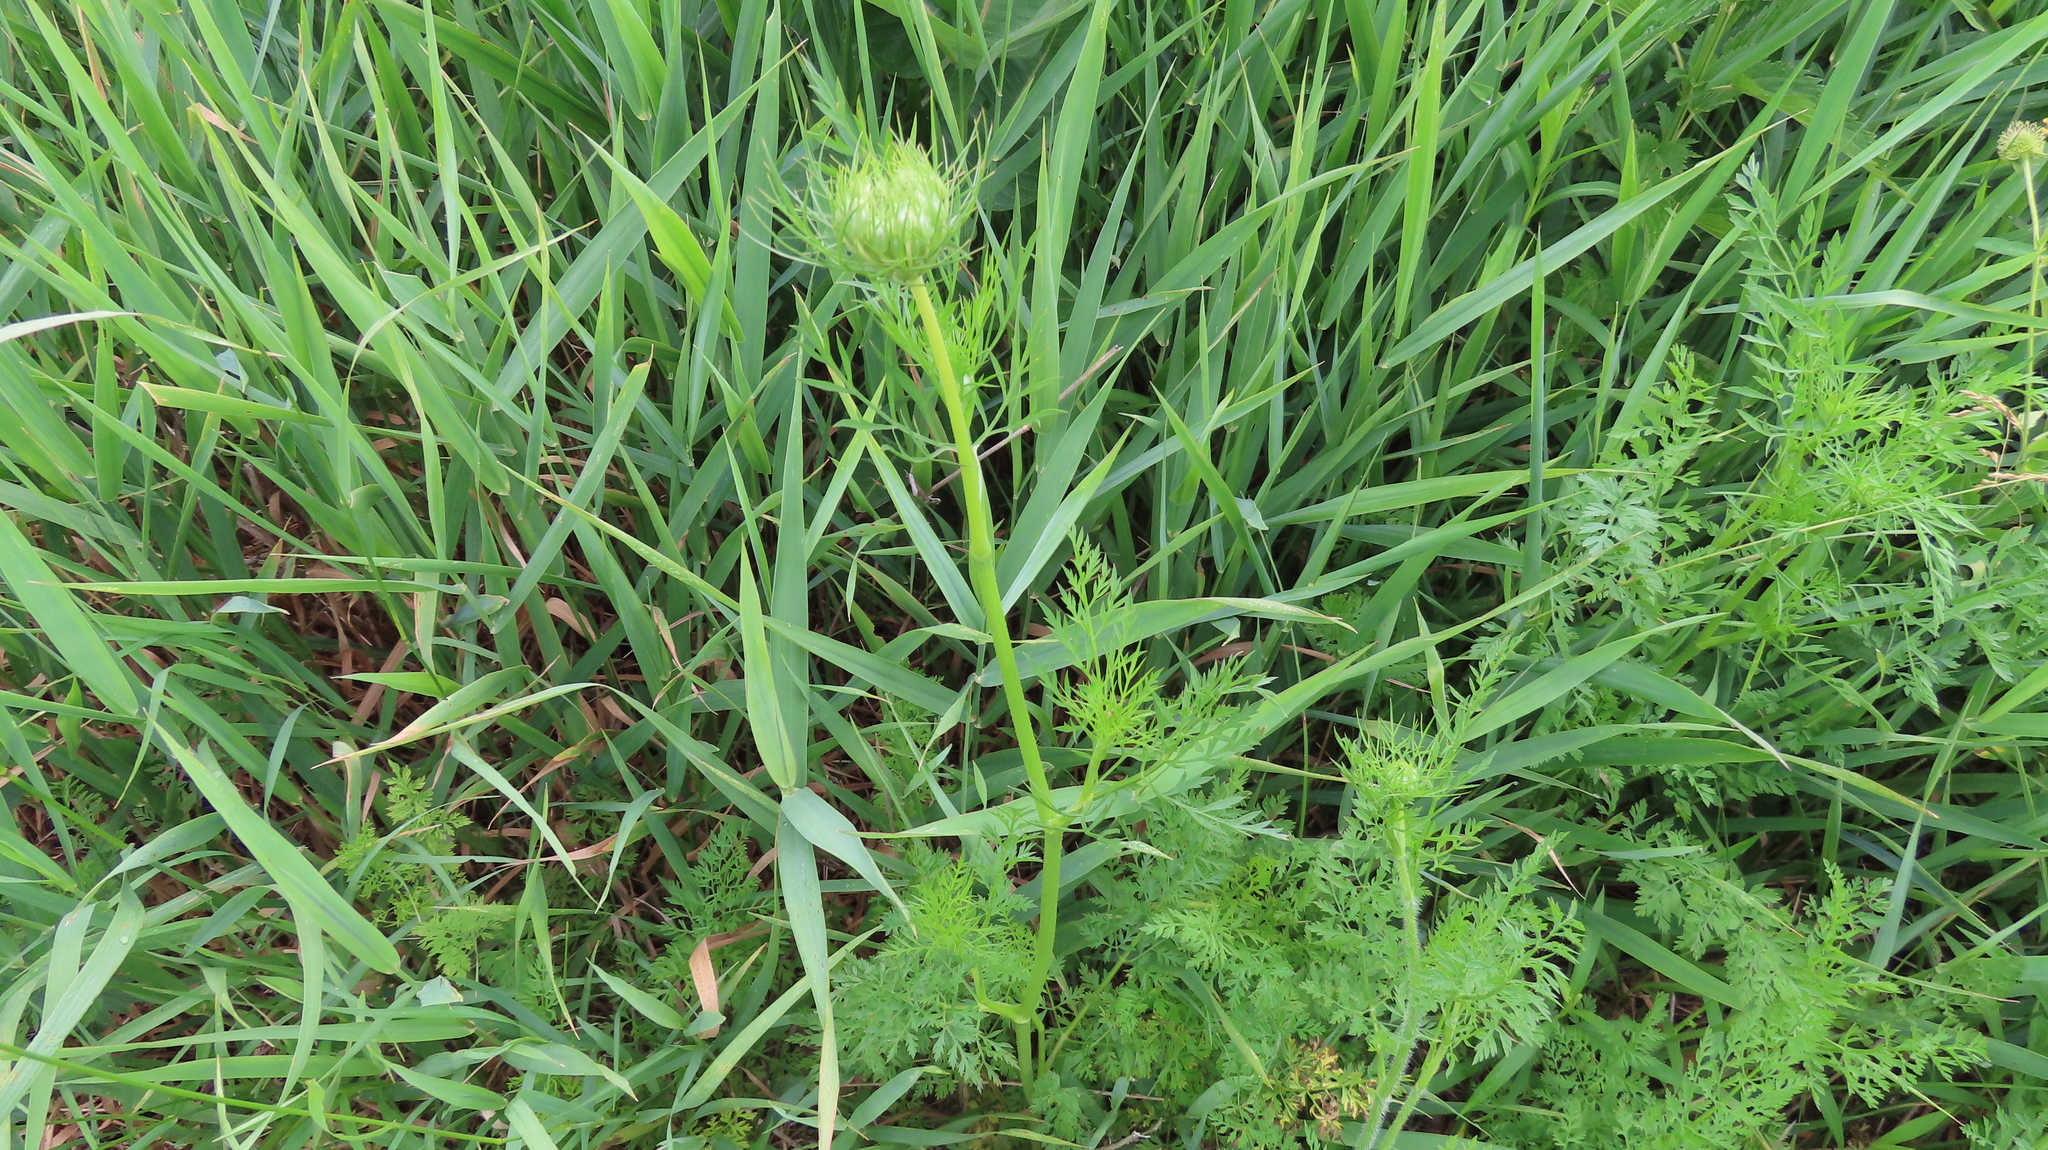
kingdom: Plantae
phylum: Tracheophyta
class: Magnoliopsida
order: Apiales
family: Apiaceae
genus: Daucus
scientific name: Daucus carota
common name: Wild carrot
